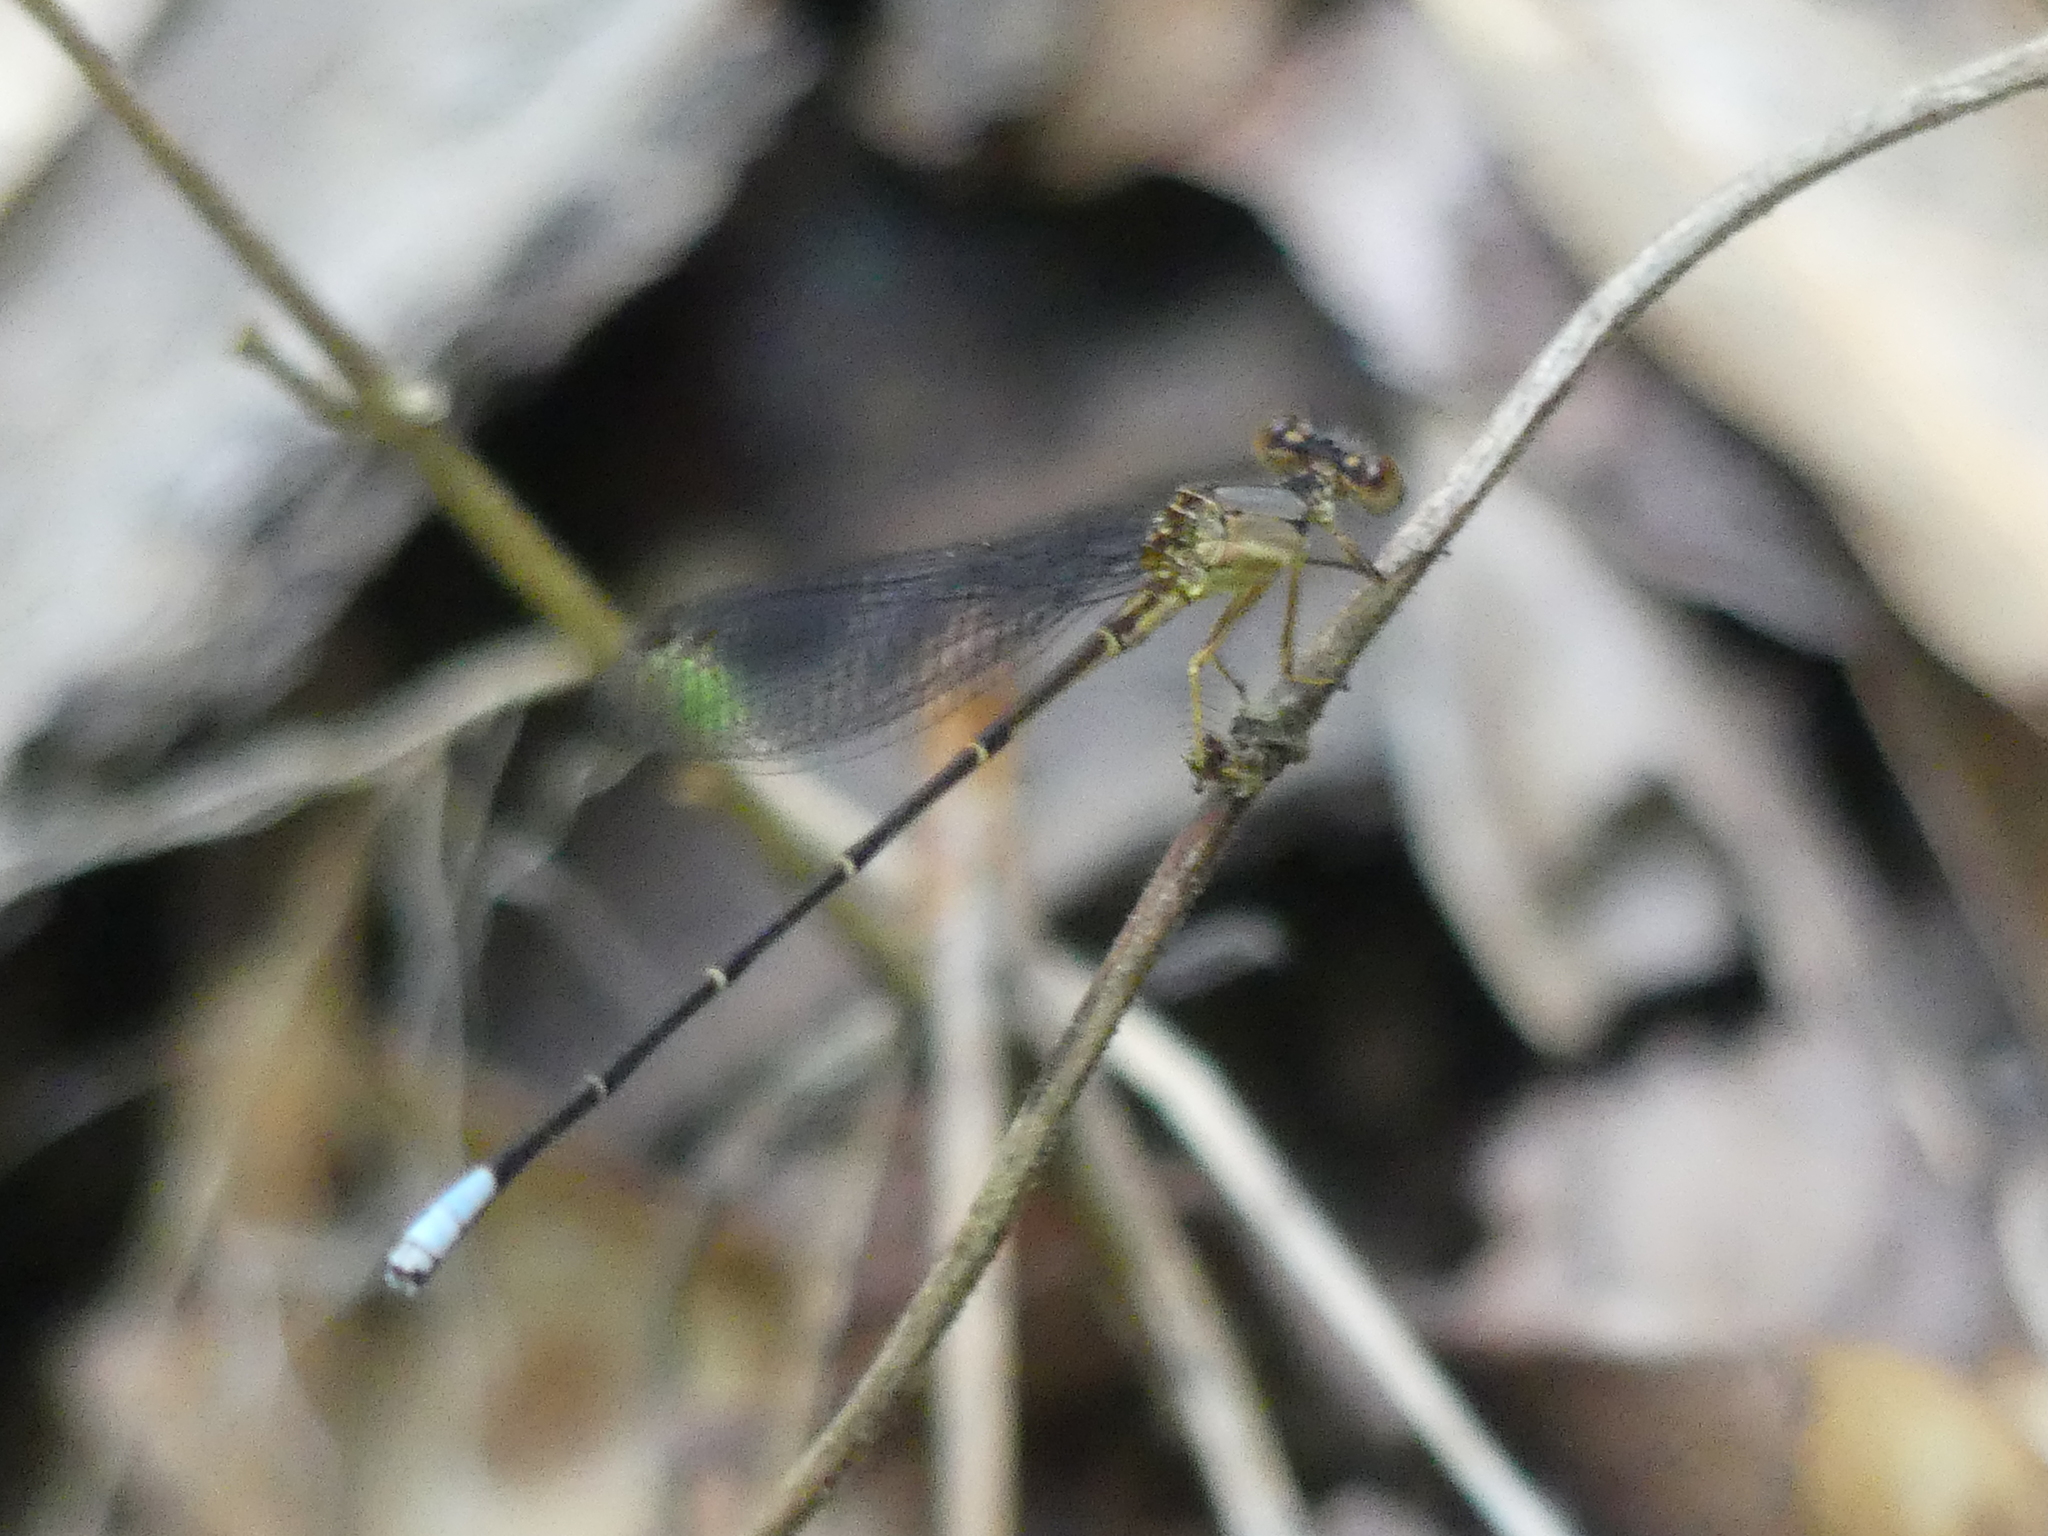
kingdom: Animalia
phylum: Arthropoda
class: Insecta
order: Odonata
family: Coenagrionidae
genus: Argia
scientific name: Argia apicalis
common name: Blue-fronted dancer
